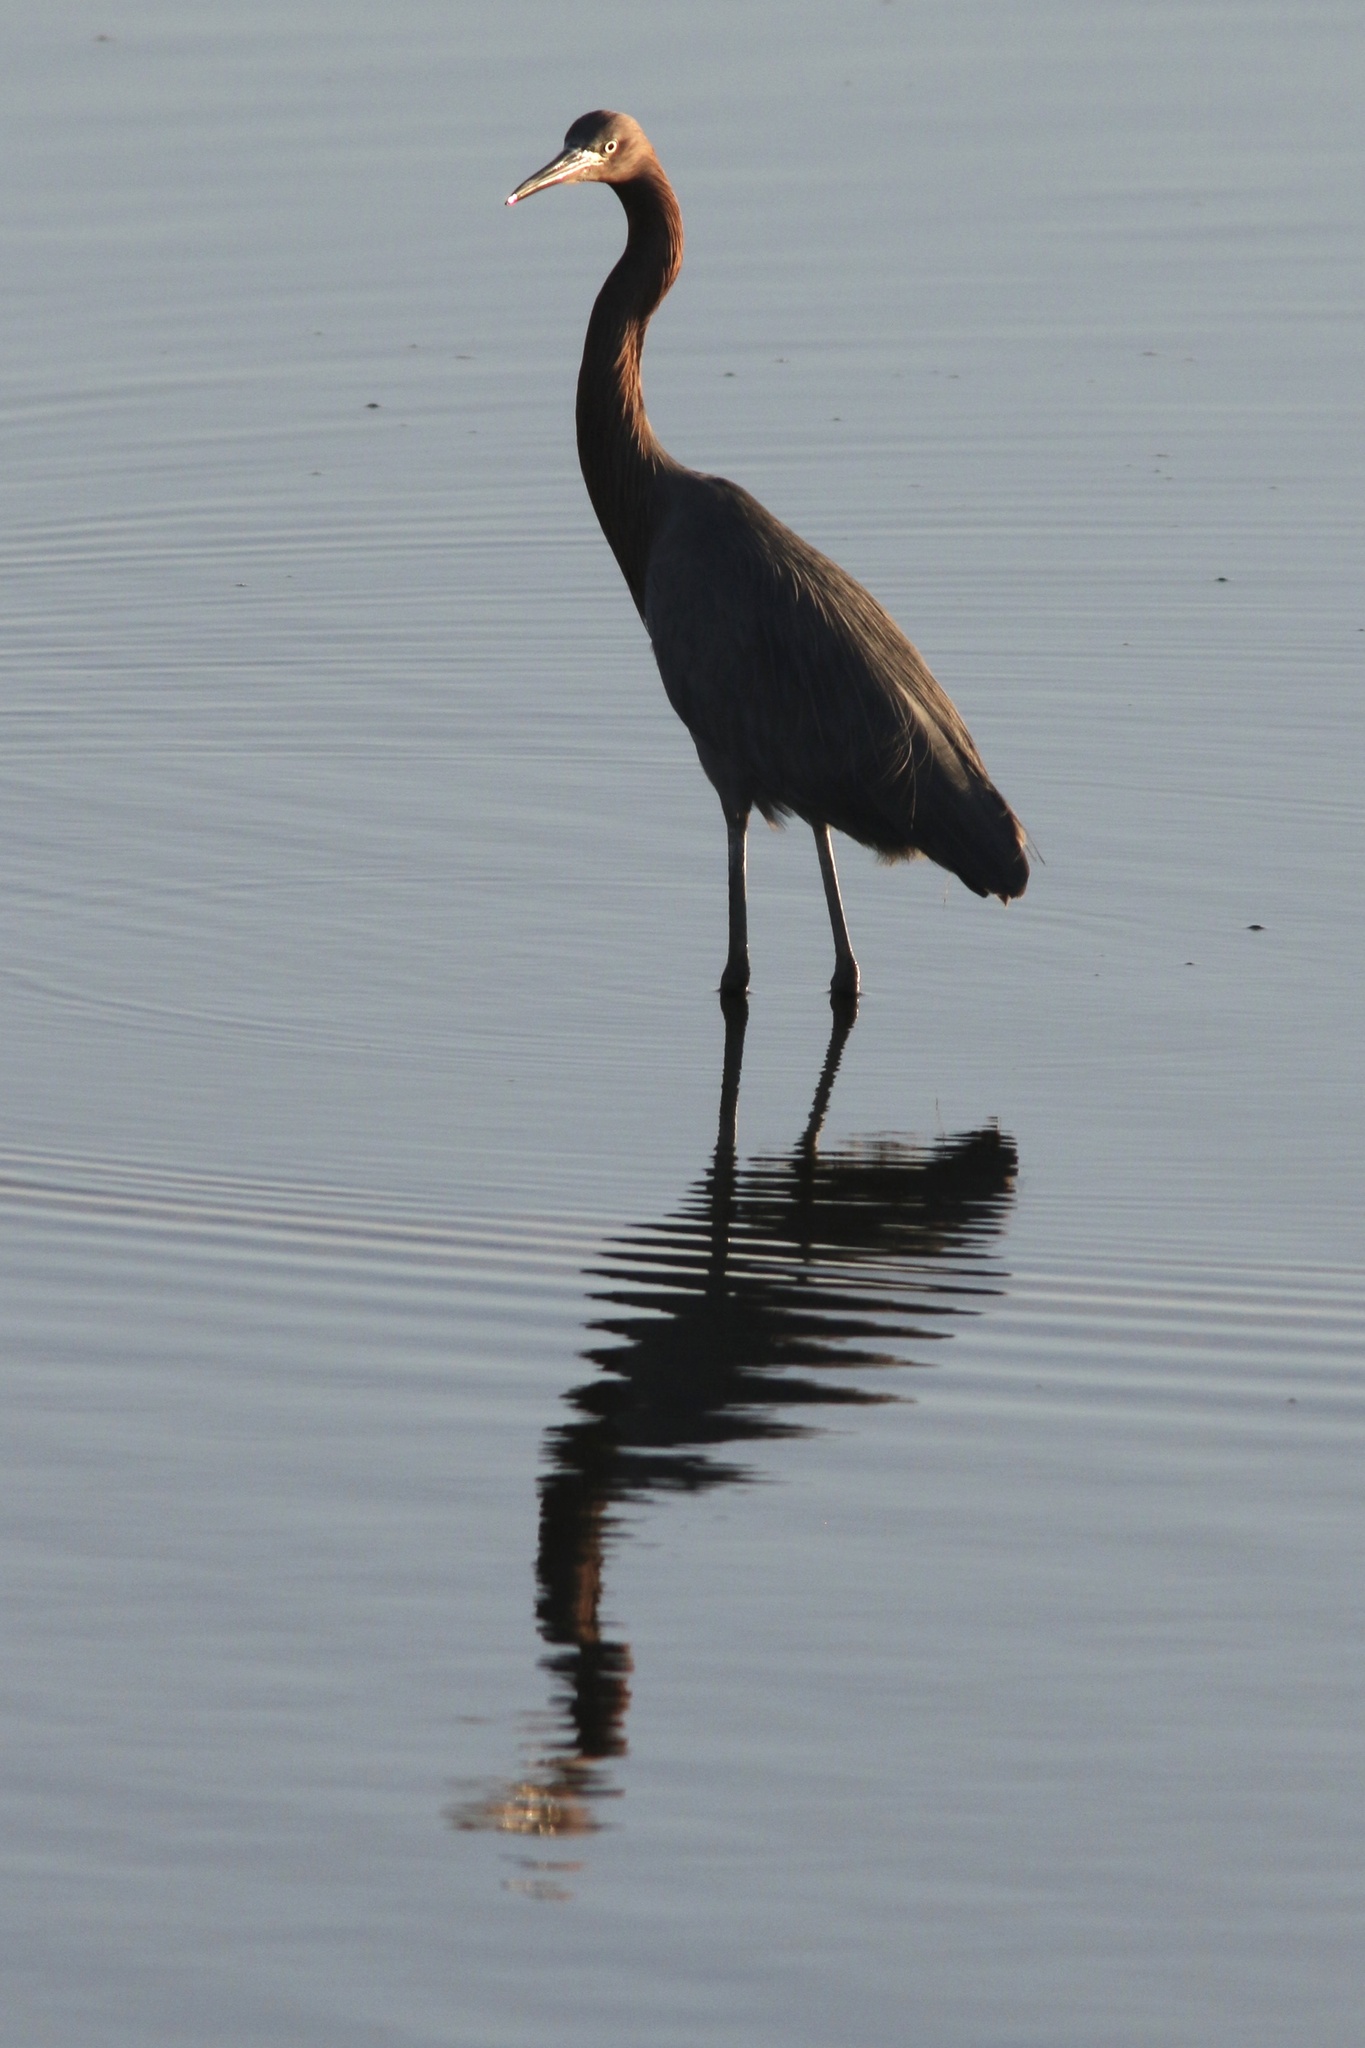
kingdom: Animalia
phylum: Chordata
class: Aves
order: Pelecaniformes
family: Ardeidae
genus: Egretta
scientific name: Egretta rufescens
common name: Reddish egret
